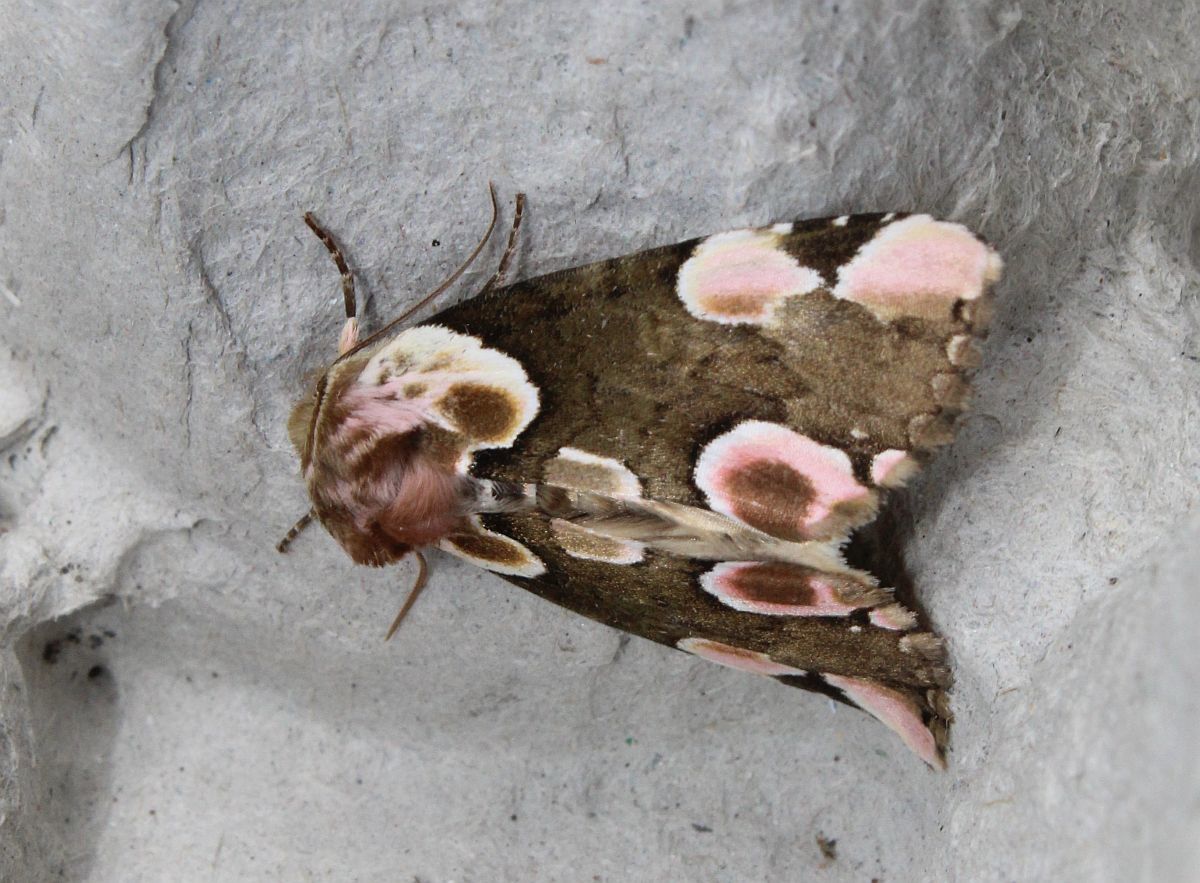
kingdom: Animalia
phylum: Arthropoda
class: Insecta
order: Lepidoptera
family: Drepanidae
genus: Thyatira
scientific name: Thyatira batis
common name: Peach blossom
